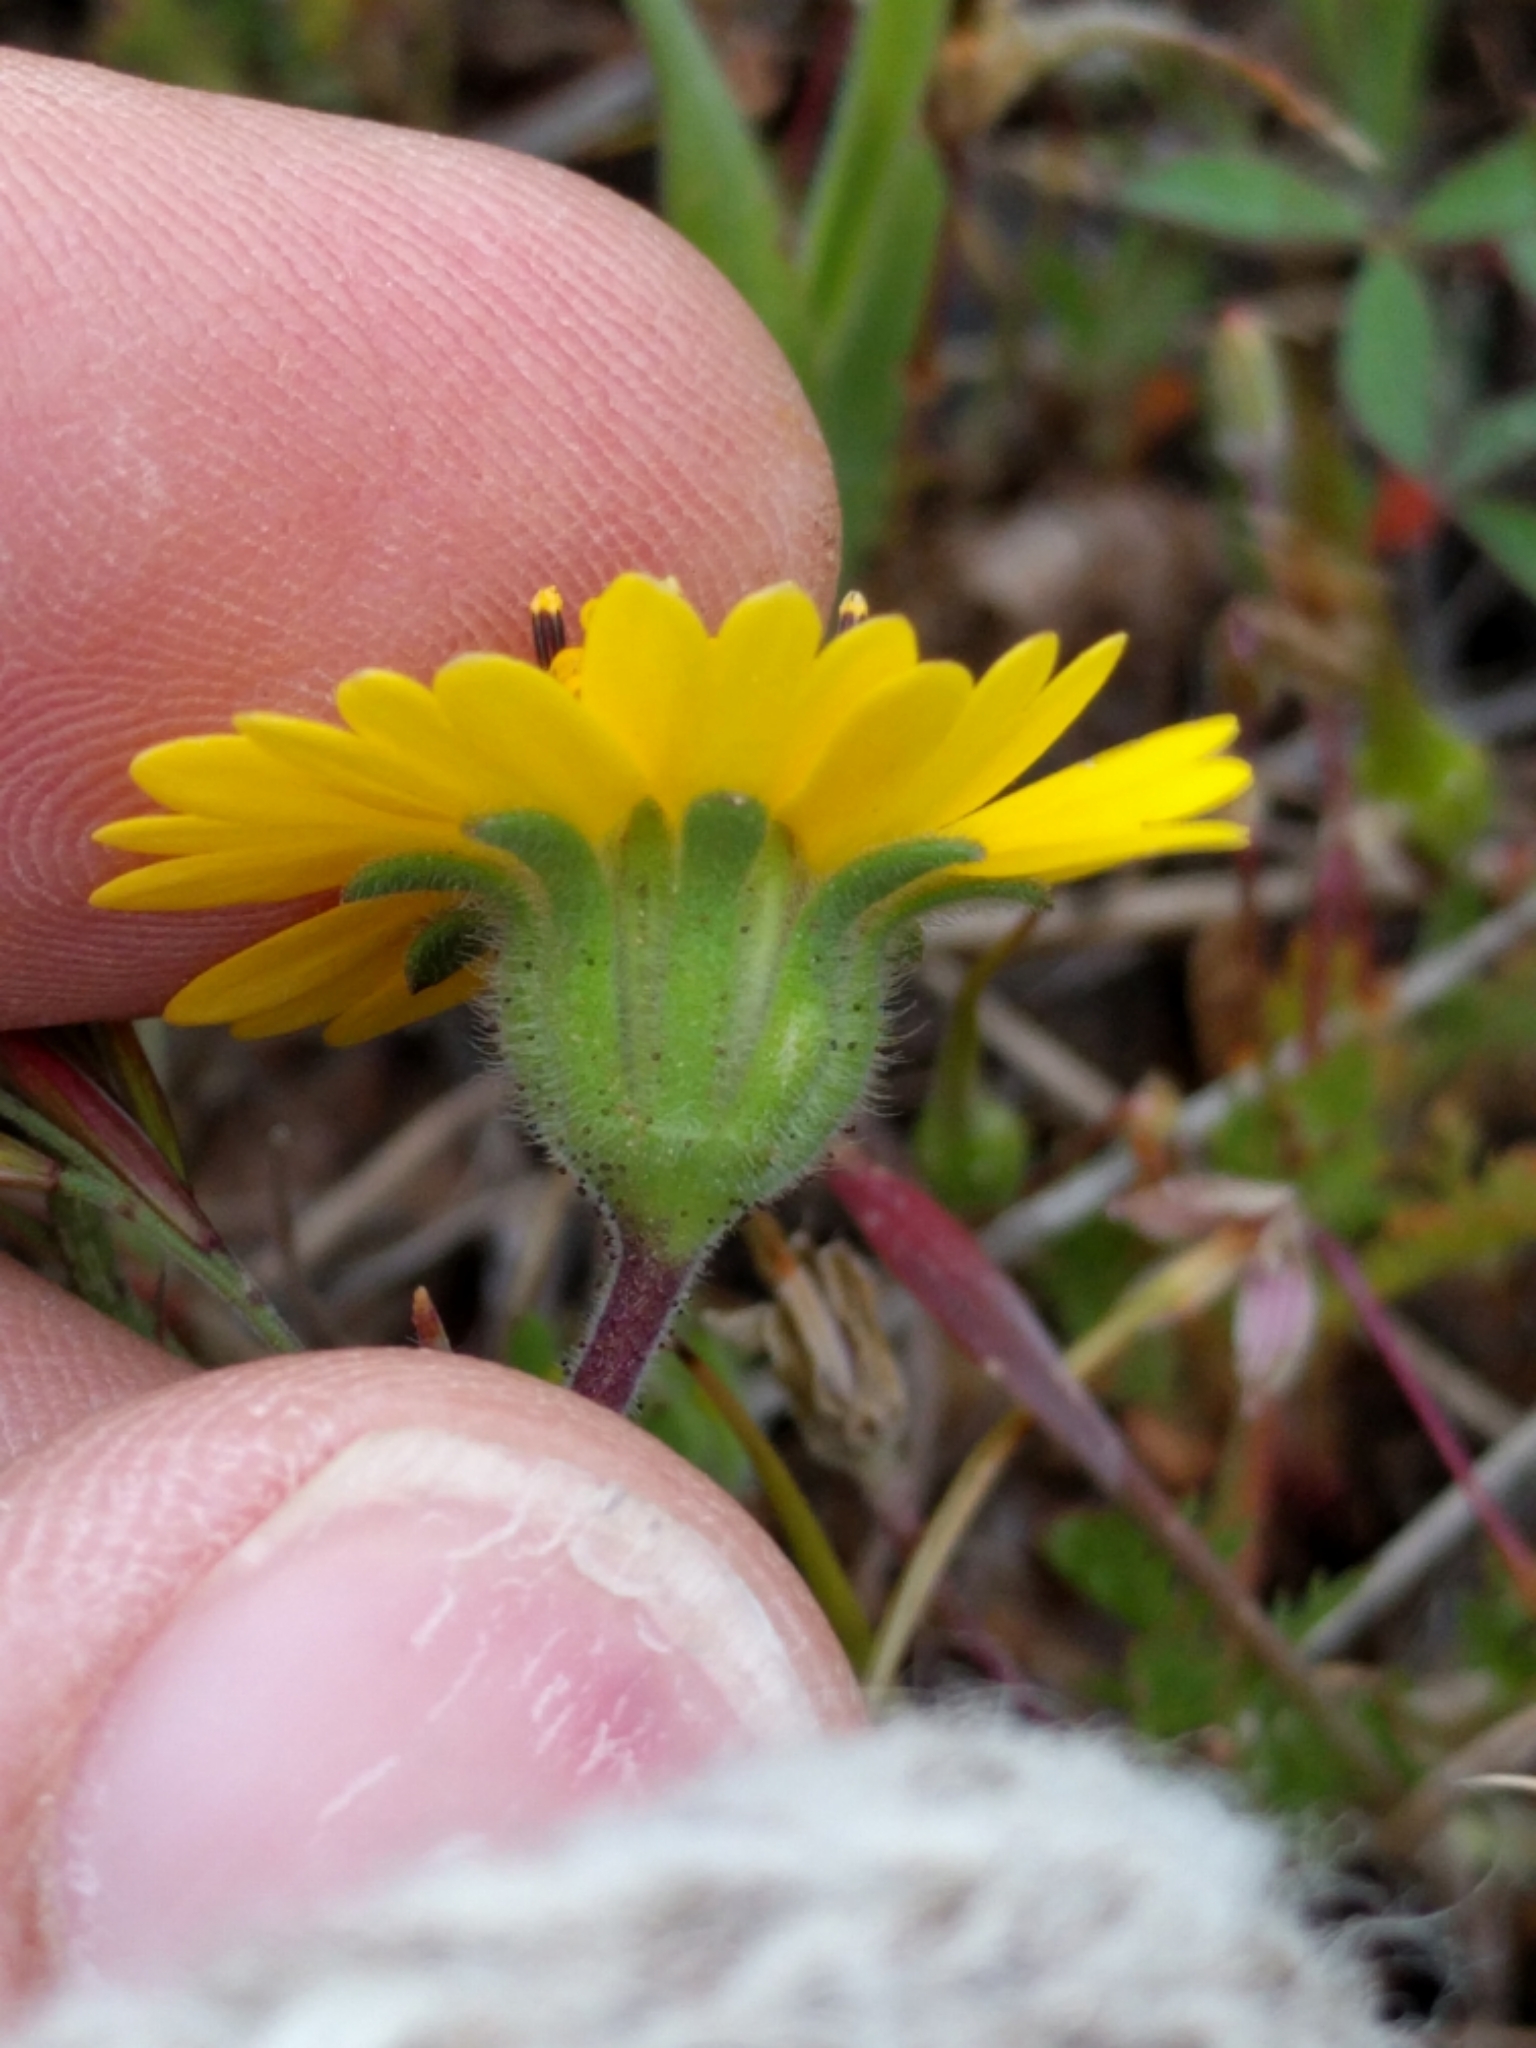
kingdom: Plantae
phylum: Tracheophyta
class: Magnoliopsida
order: Asterales
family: Asteraceae
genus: Layia
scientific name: Layia platyglossa
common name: Tidy-tips
